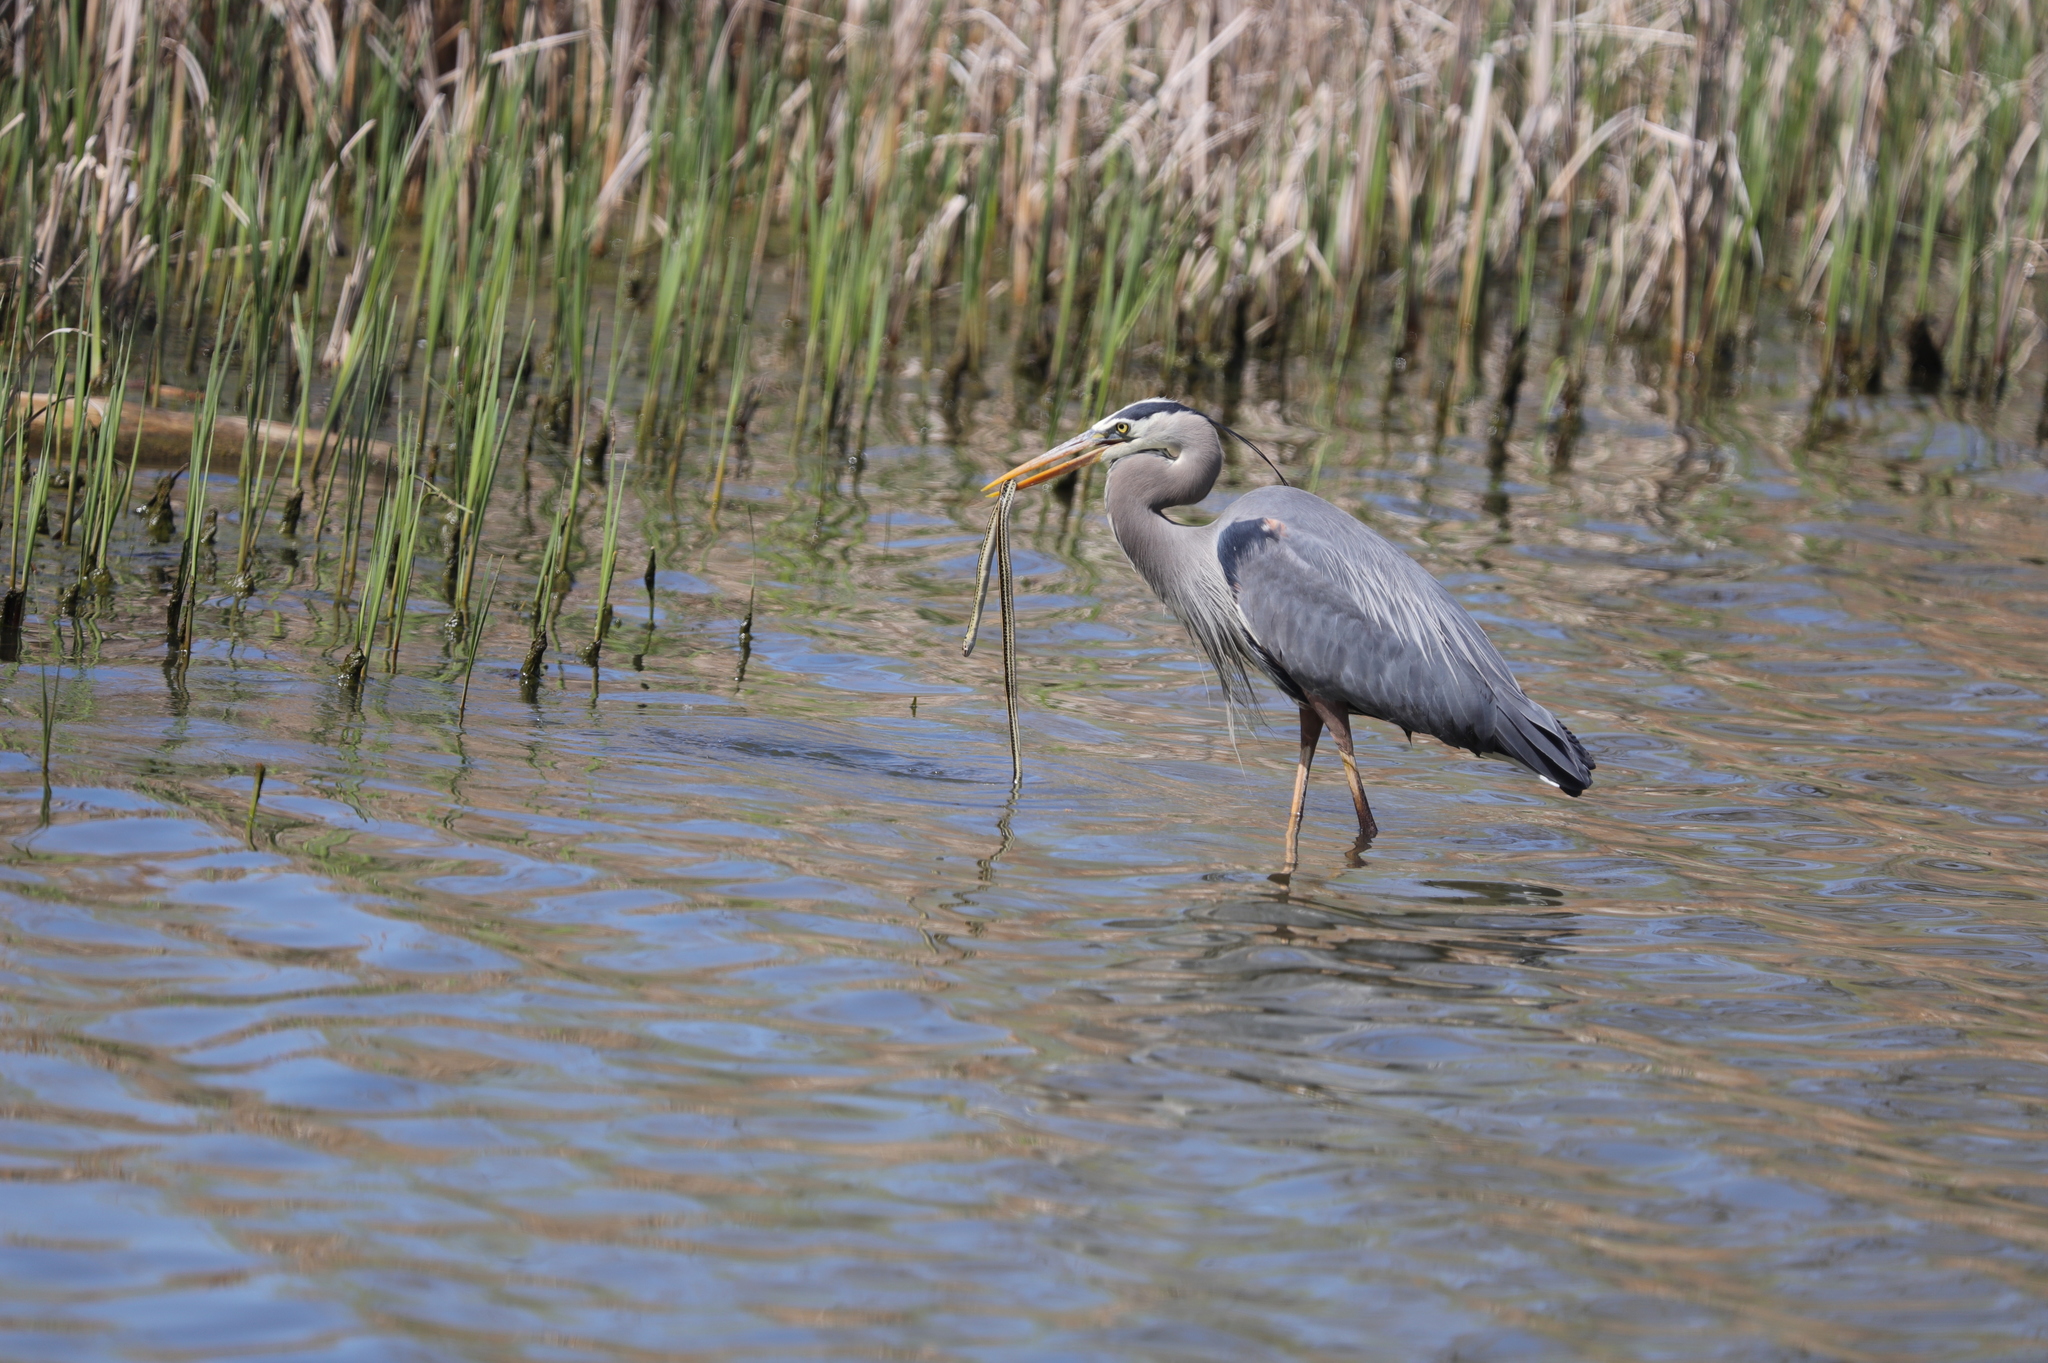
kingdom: Animalia
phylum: Chordata
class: Aves
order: Pelecaniformes
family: Ardeidae
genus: Ardea
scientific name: Ardea herodias
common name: Great blue heron
